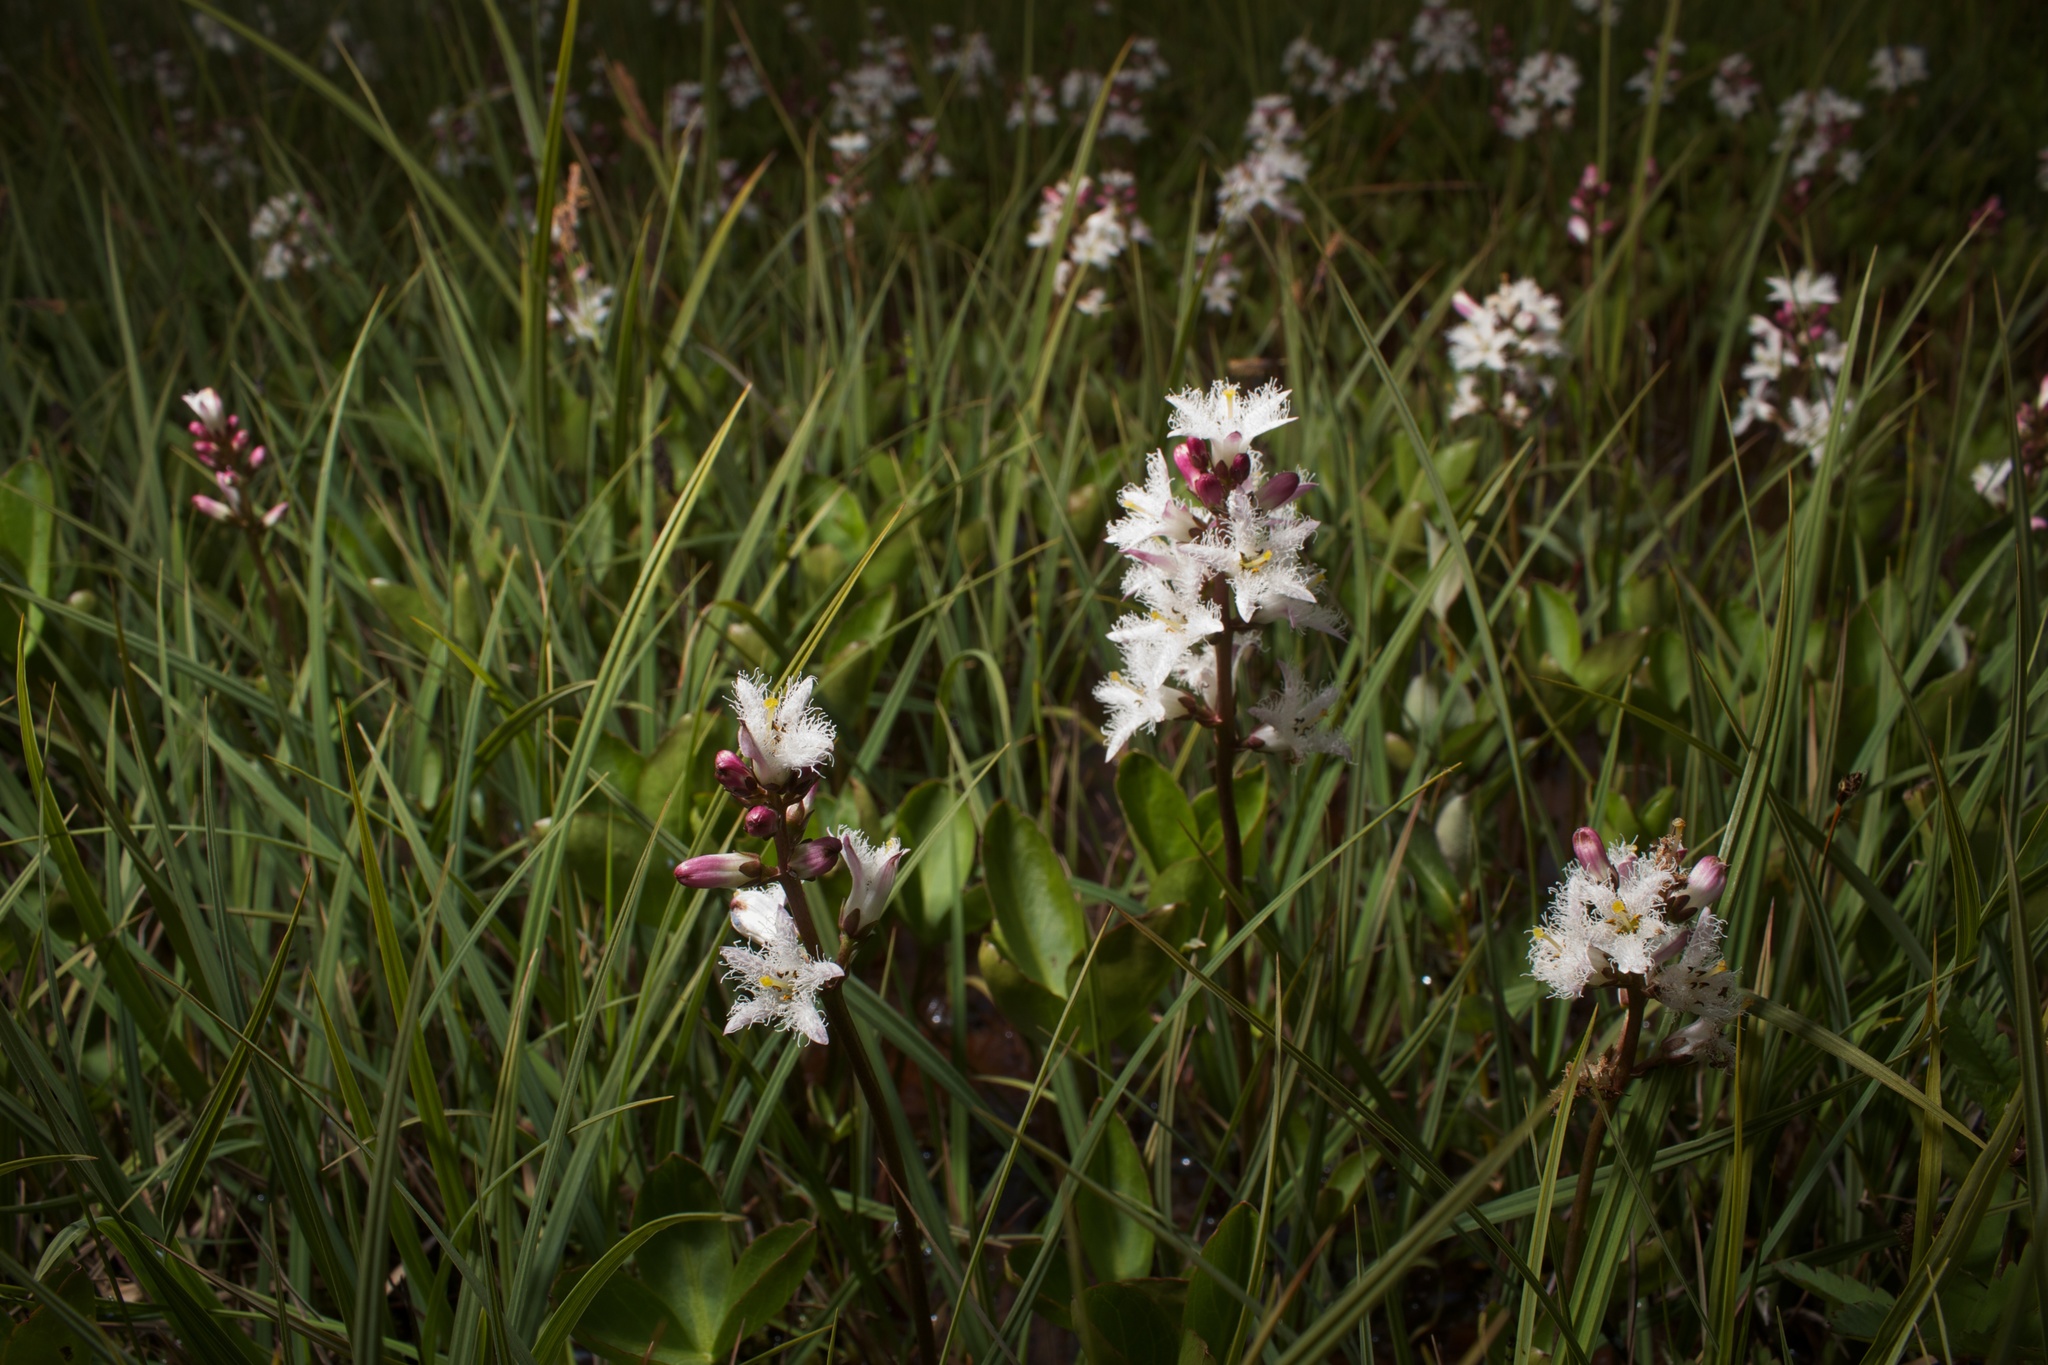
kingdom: Plantae
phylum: Tracheophyta
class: Magnoliopsida
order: Asterales
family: Menyanthaceae
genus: Menyanthes
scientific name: Menyanthes trifoliata
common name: Bogbean
